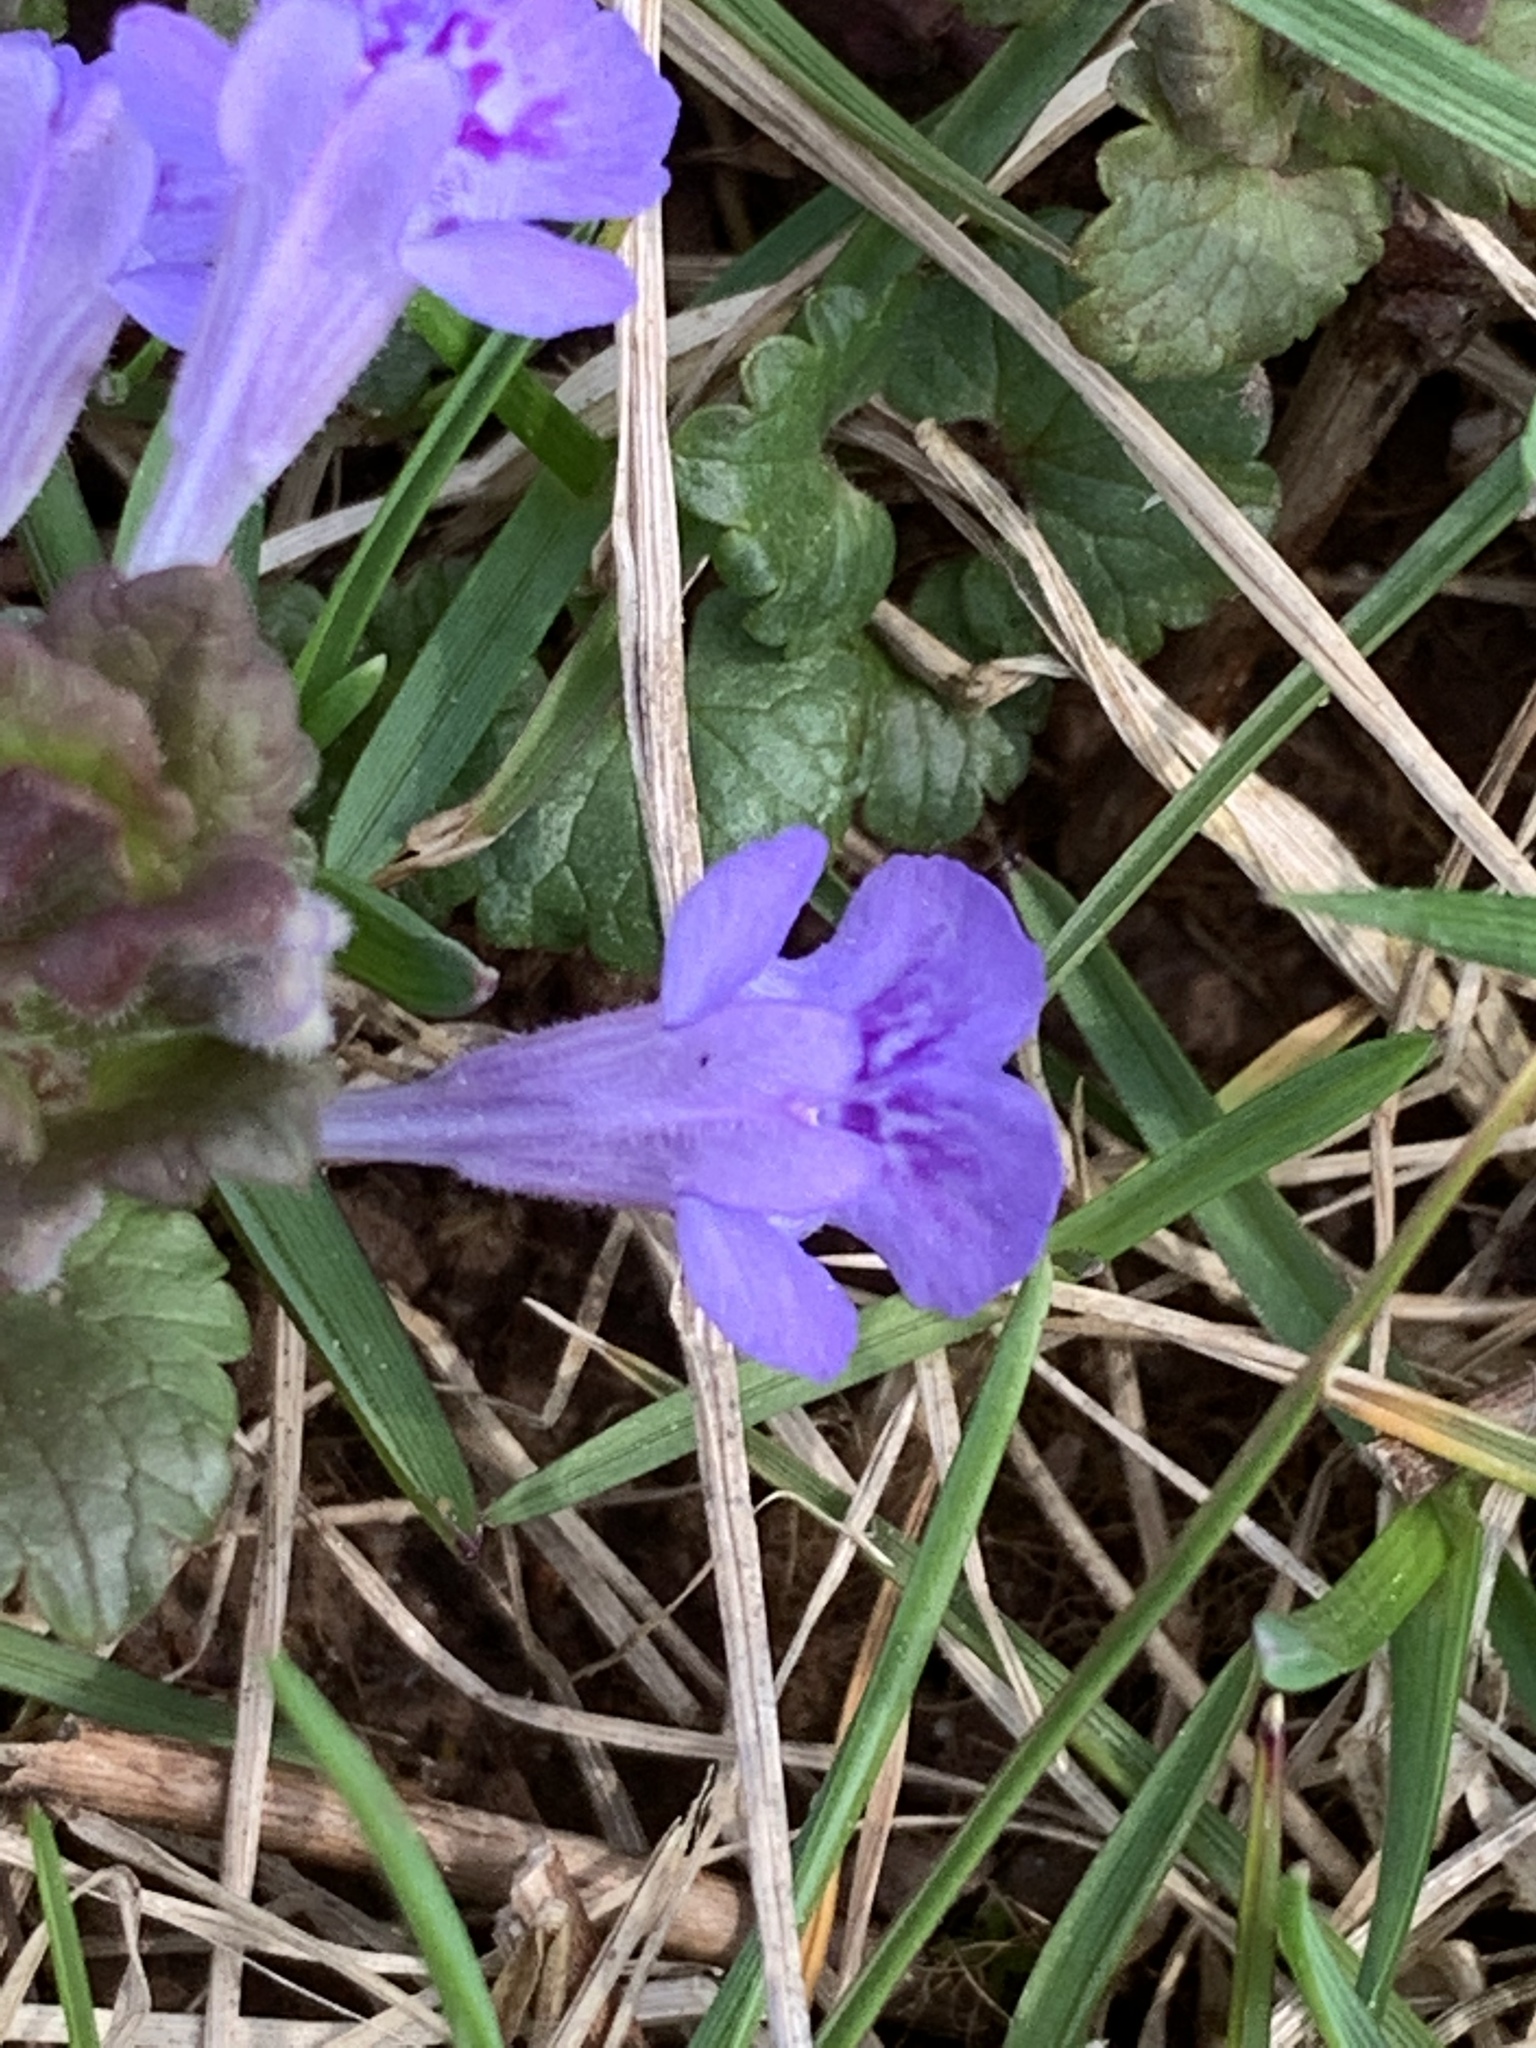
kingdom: Plantae
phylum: Tracheophyta
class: Magnoliopsida
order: Lamiales
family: Lamiaceae
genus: Glechoma
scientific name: Glechoma hederacea
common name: Ground ivy
